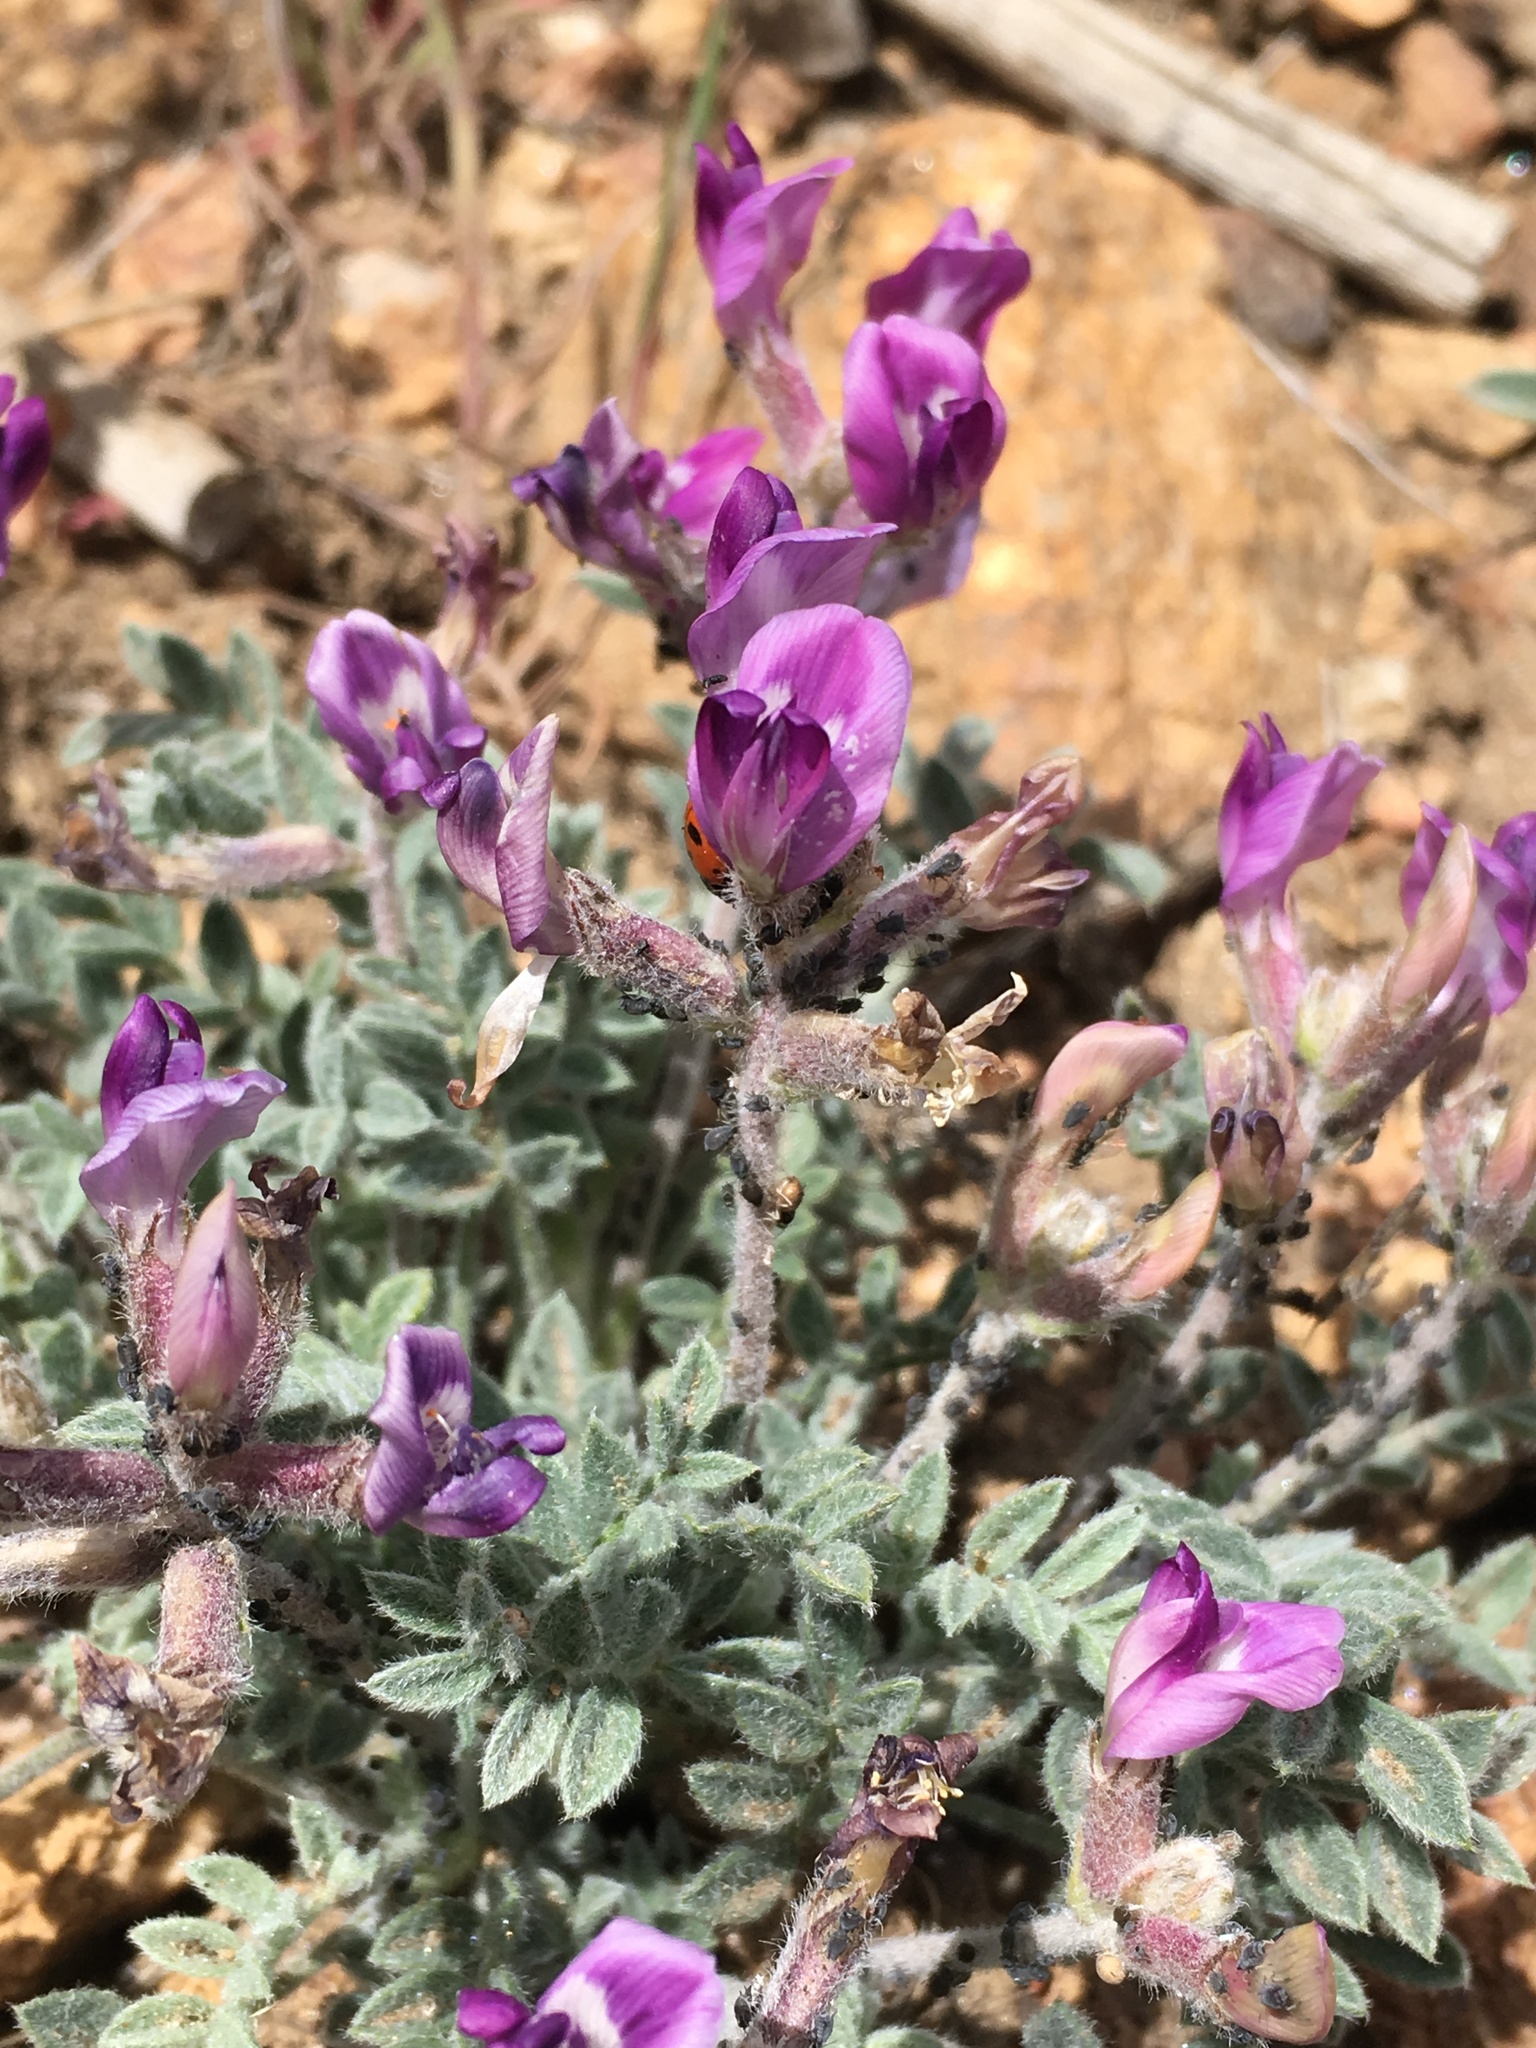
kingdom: Plantae
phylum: Tracheophyta
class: Magnoliopsida
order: Fabales
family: Fabaceae
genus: Astragalus
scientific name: Astragalus leucolobus
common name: Big bear valley woollypod
